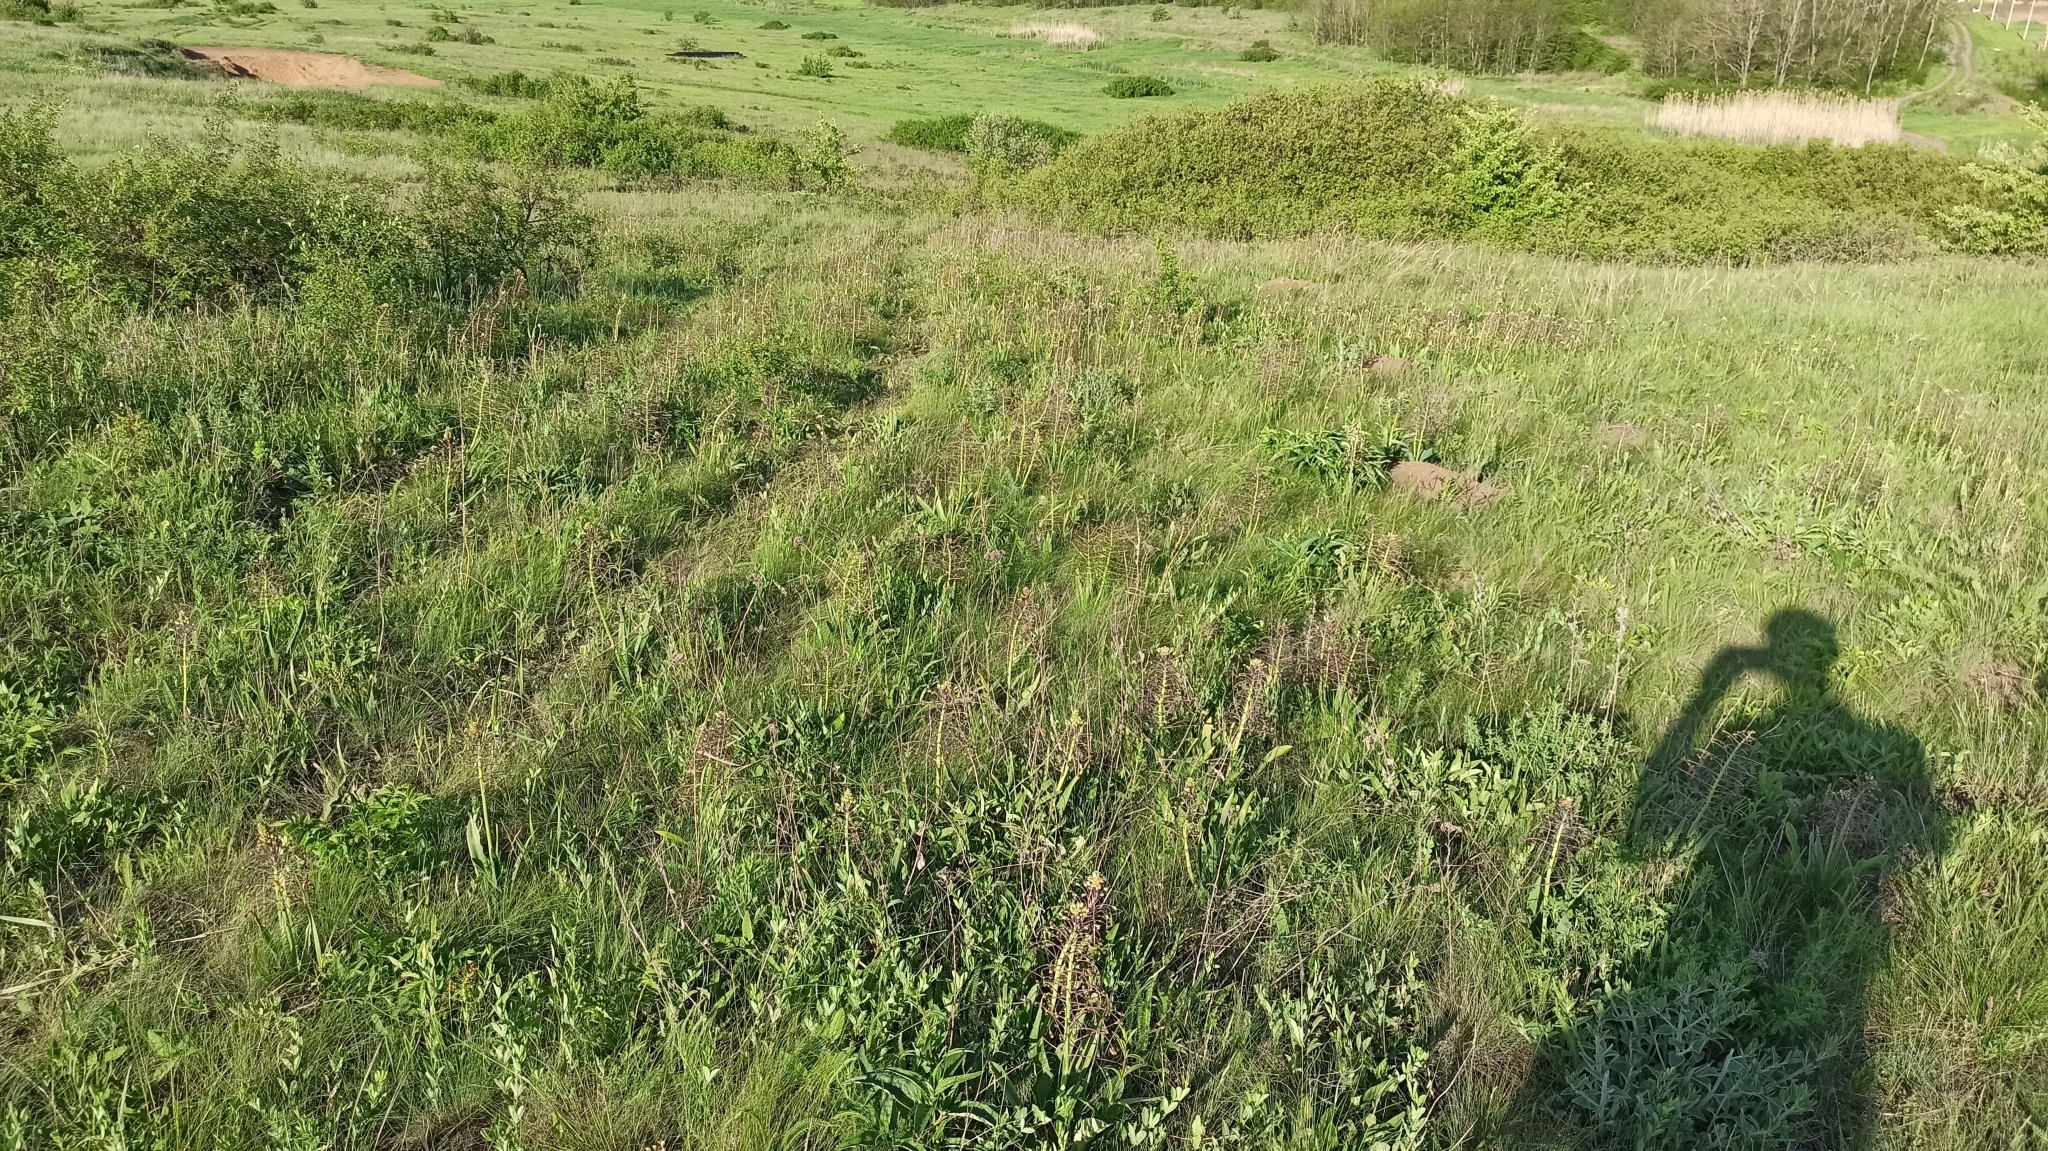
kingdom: Plantae
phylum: Tracheophyta
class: Liliopsida
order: Asparagales
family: Asparagaceae
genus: Bellevalia
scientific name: Bellevalia speciosa
